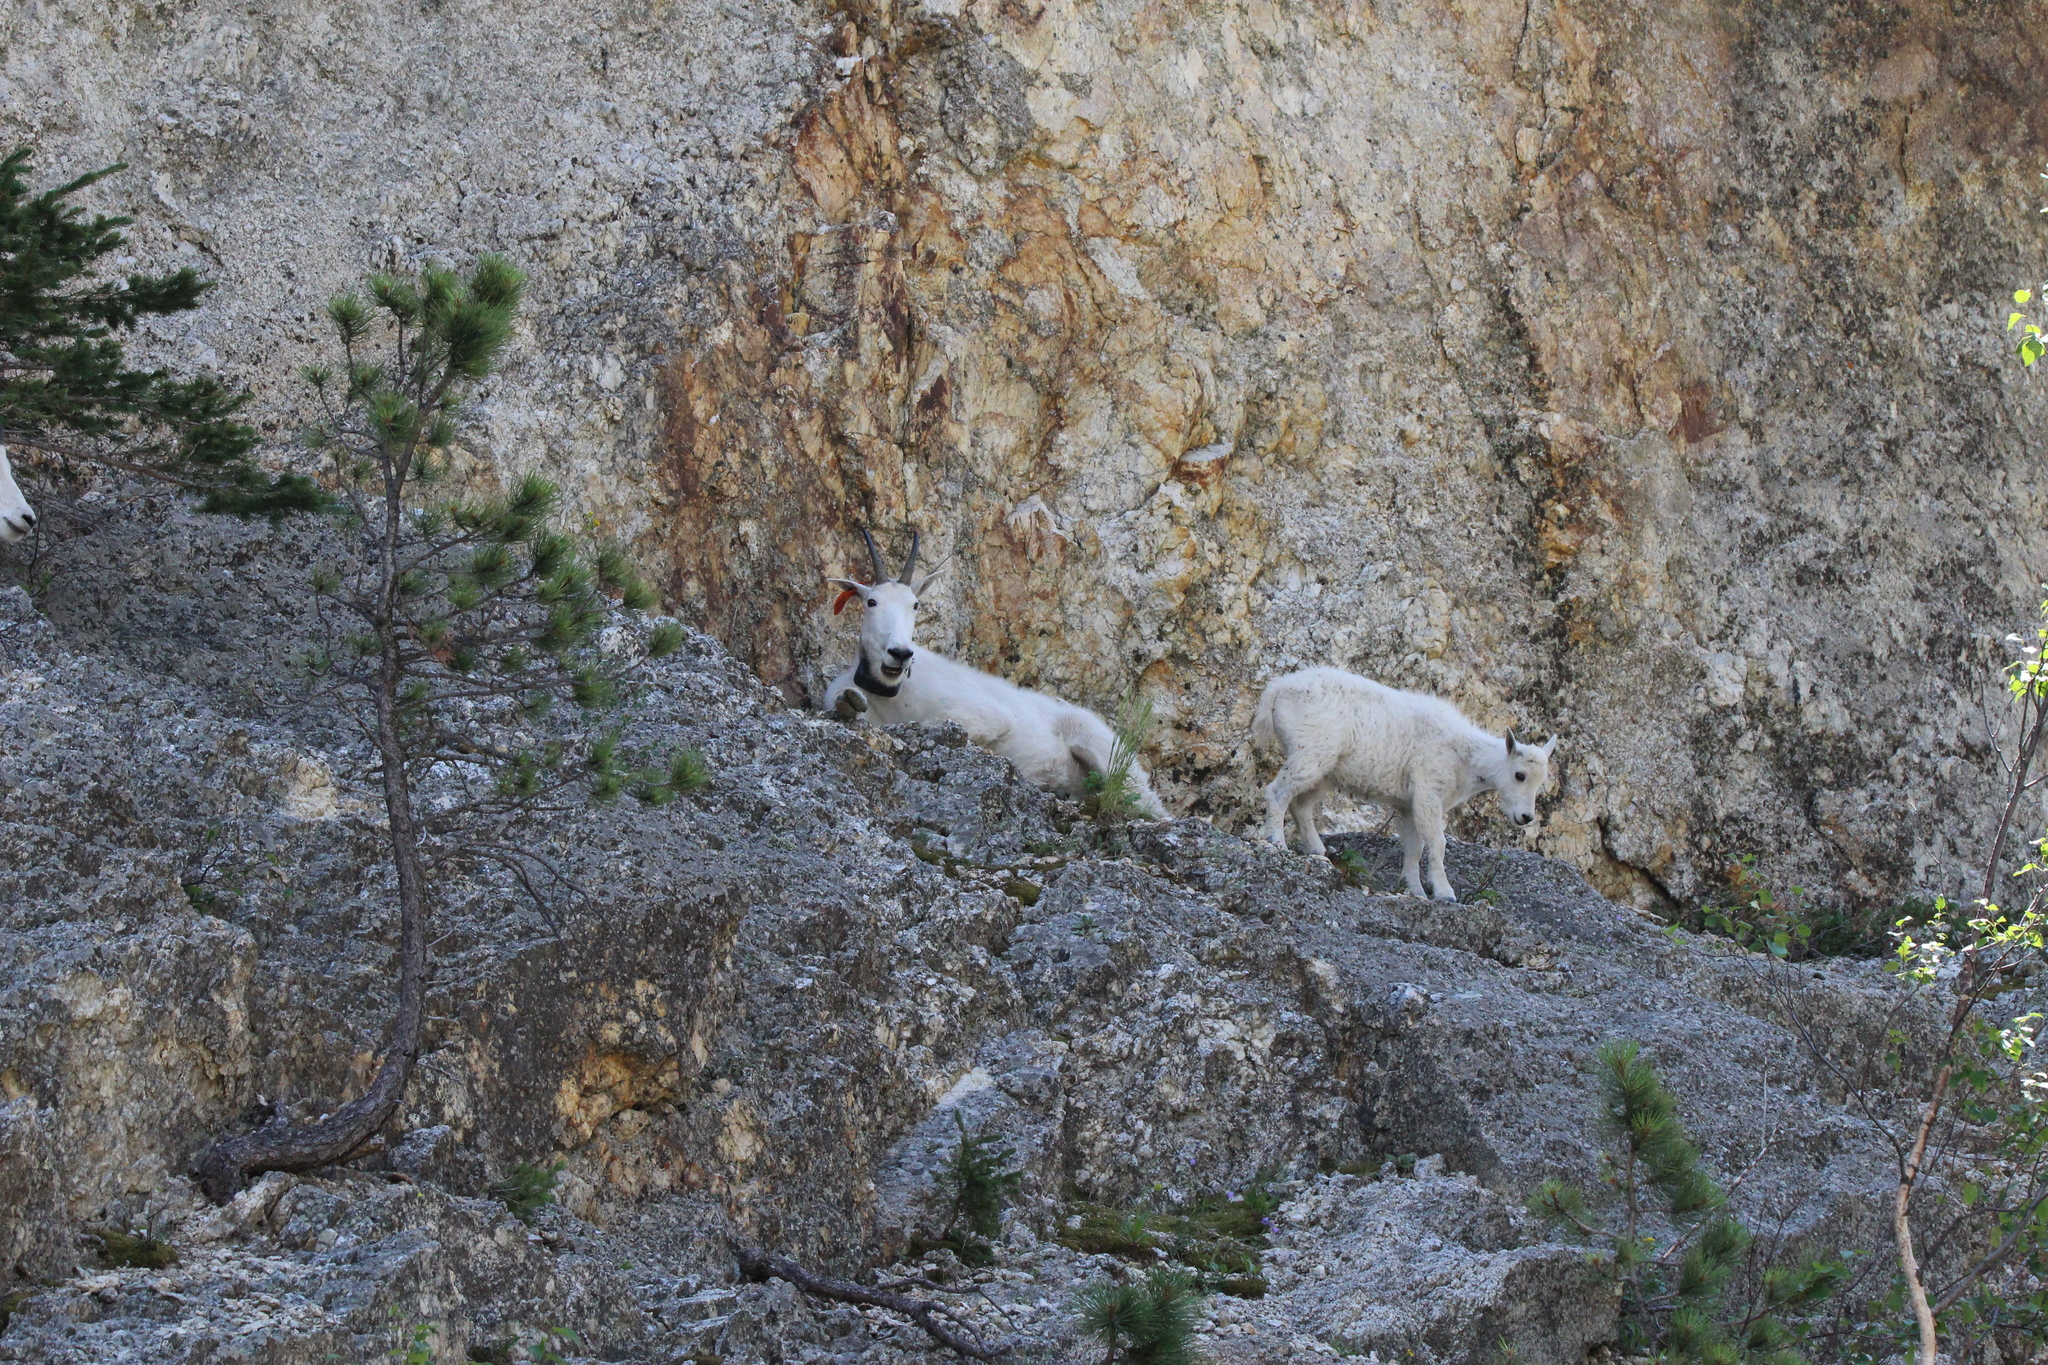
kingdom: Animalia
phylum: Chordata
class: Mammalia
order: Artiodactyla
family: Bovidae
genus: Oreamnos
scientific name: Oreamnos americanus
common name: Mountain goat
